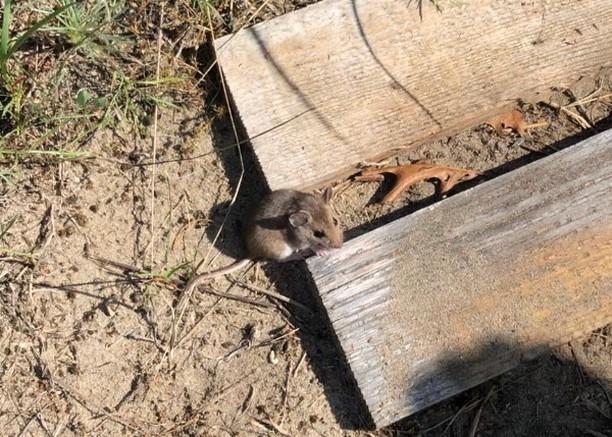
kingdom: Animalia
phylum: Chordata
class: Mammalia
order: Rodentia
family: Cricetidae
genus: Peromyscus
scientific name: Peromyscus maniculatus
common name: Deer mouse
